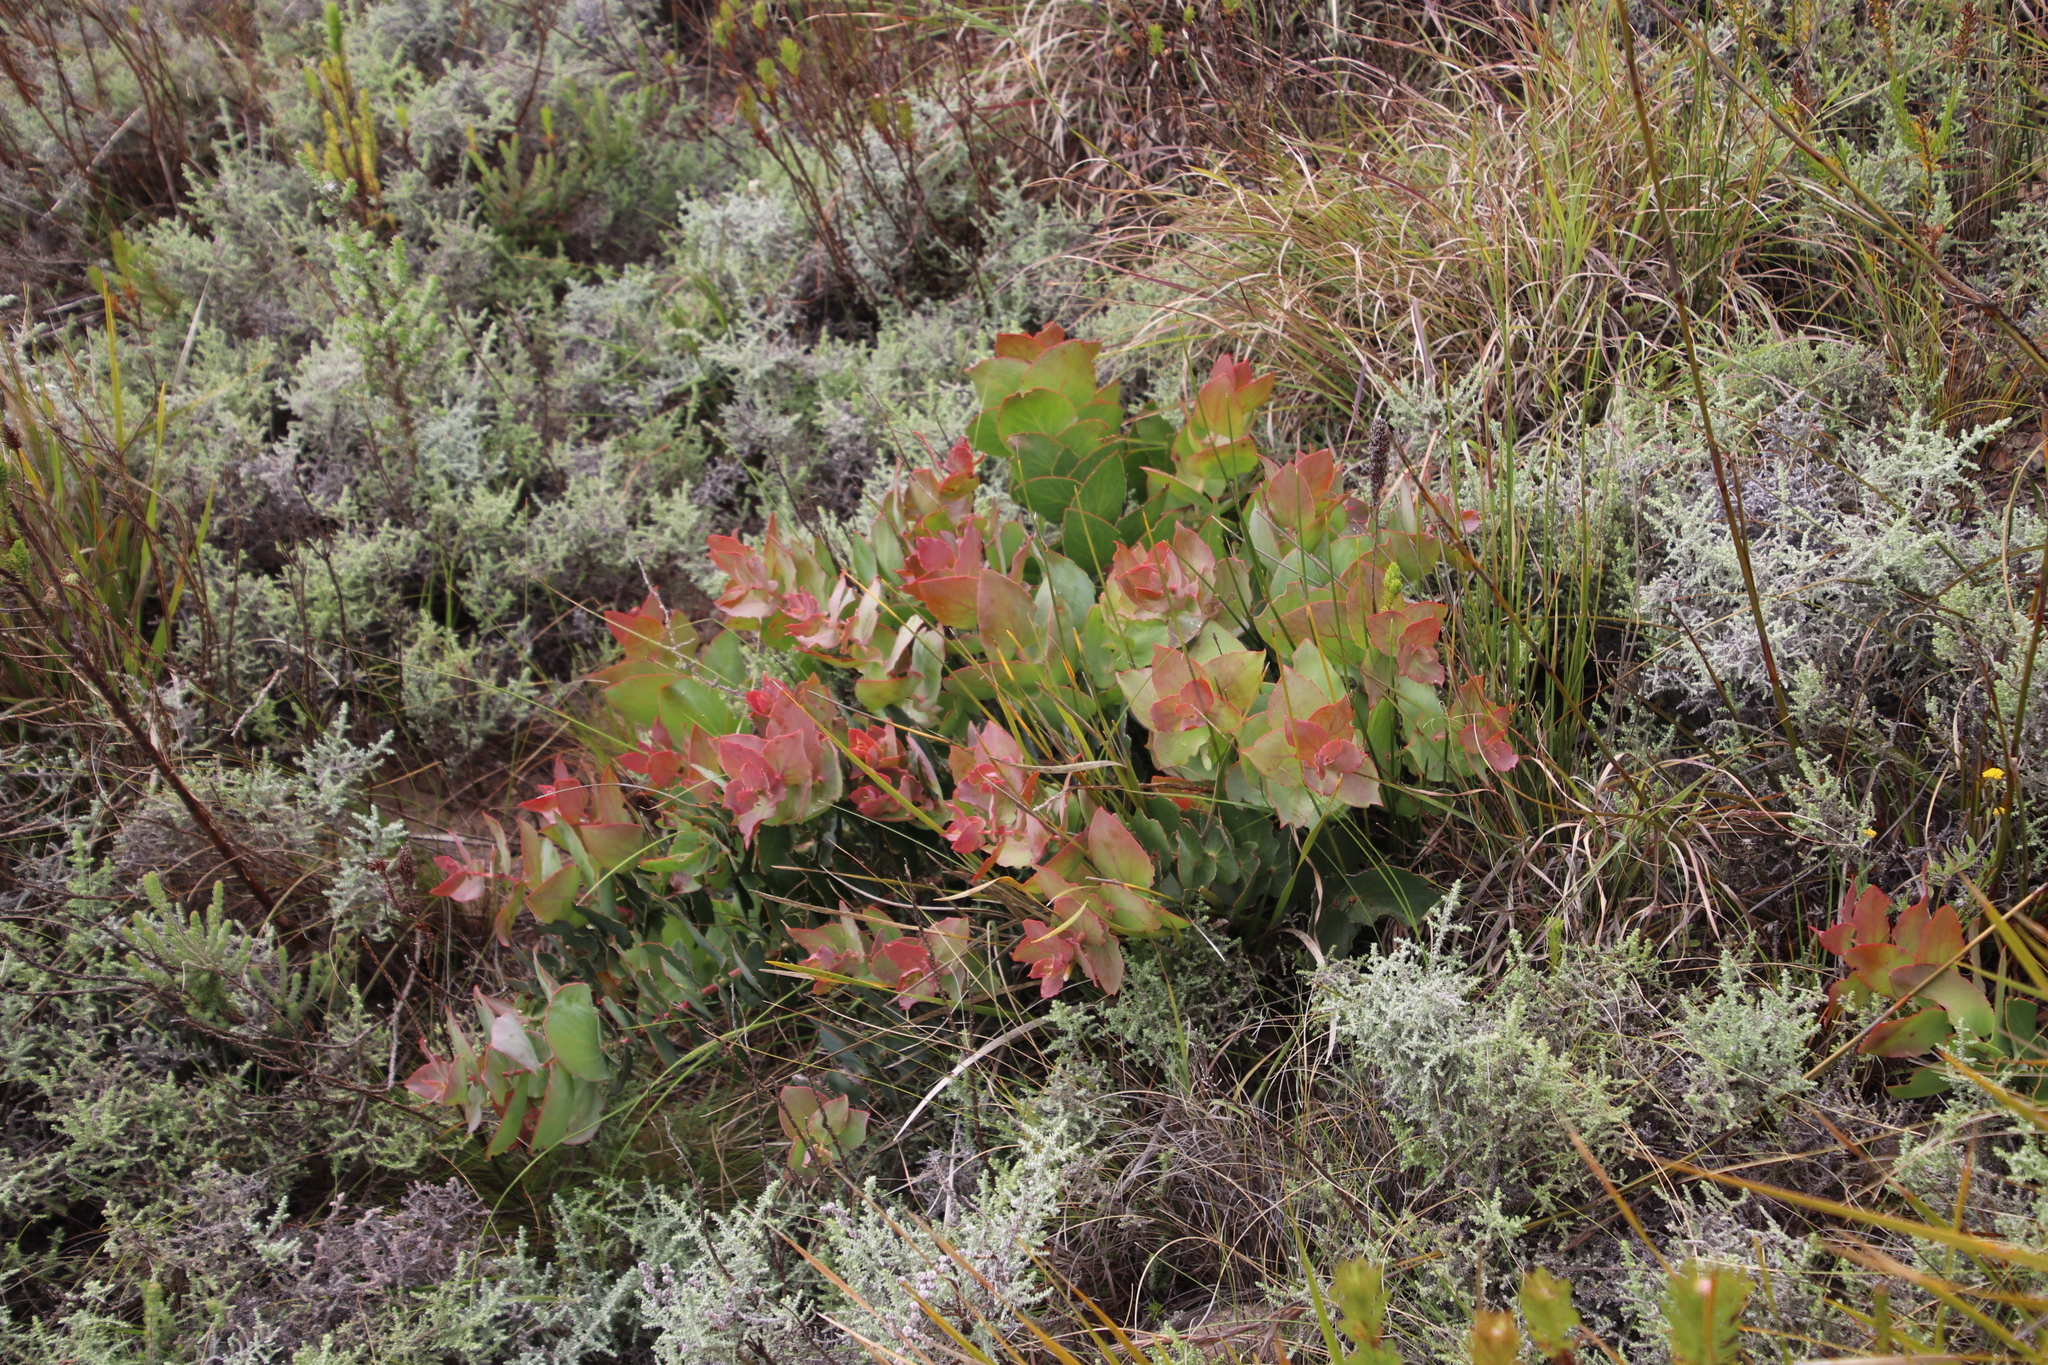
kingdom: Plantae
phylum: Tracheophyta
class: Magnoliopsida
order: Proteales
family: Proteaceae
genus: Protea
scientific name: Protea amplexicaulis
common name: Clasping-leaf sugarbush
